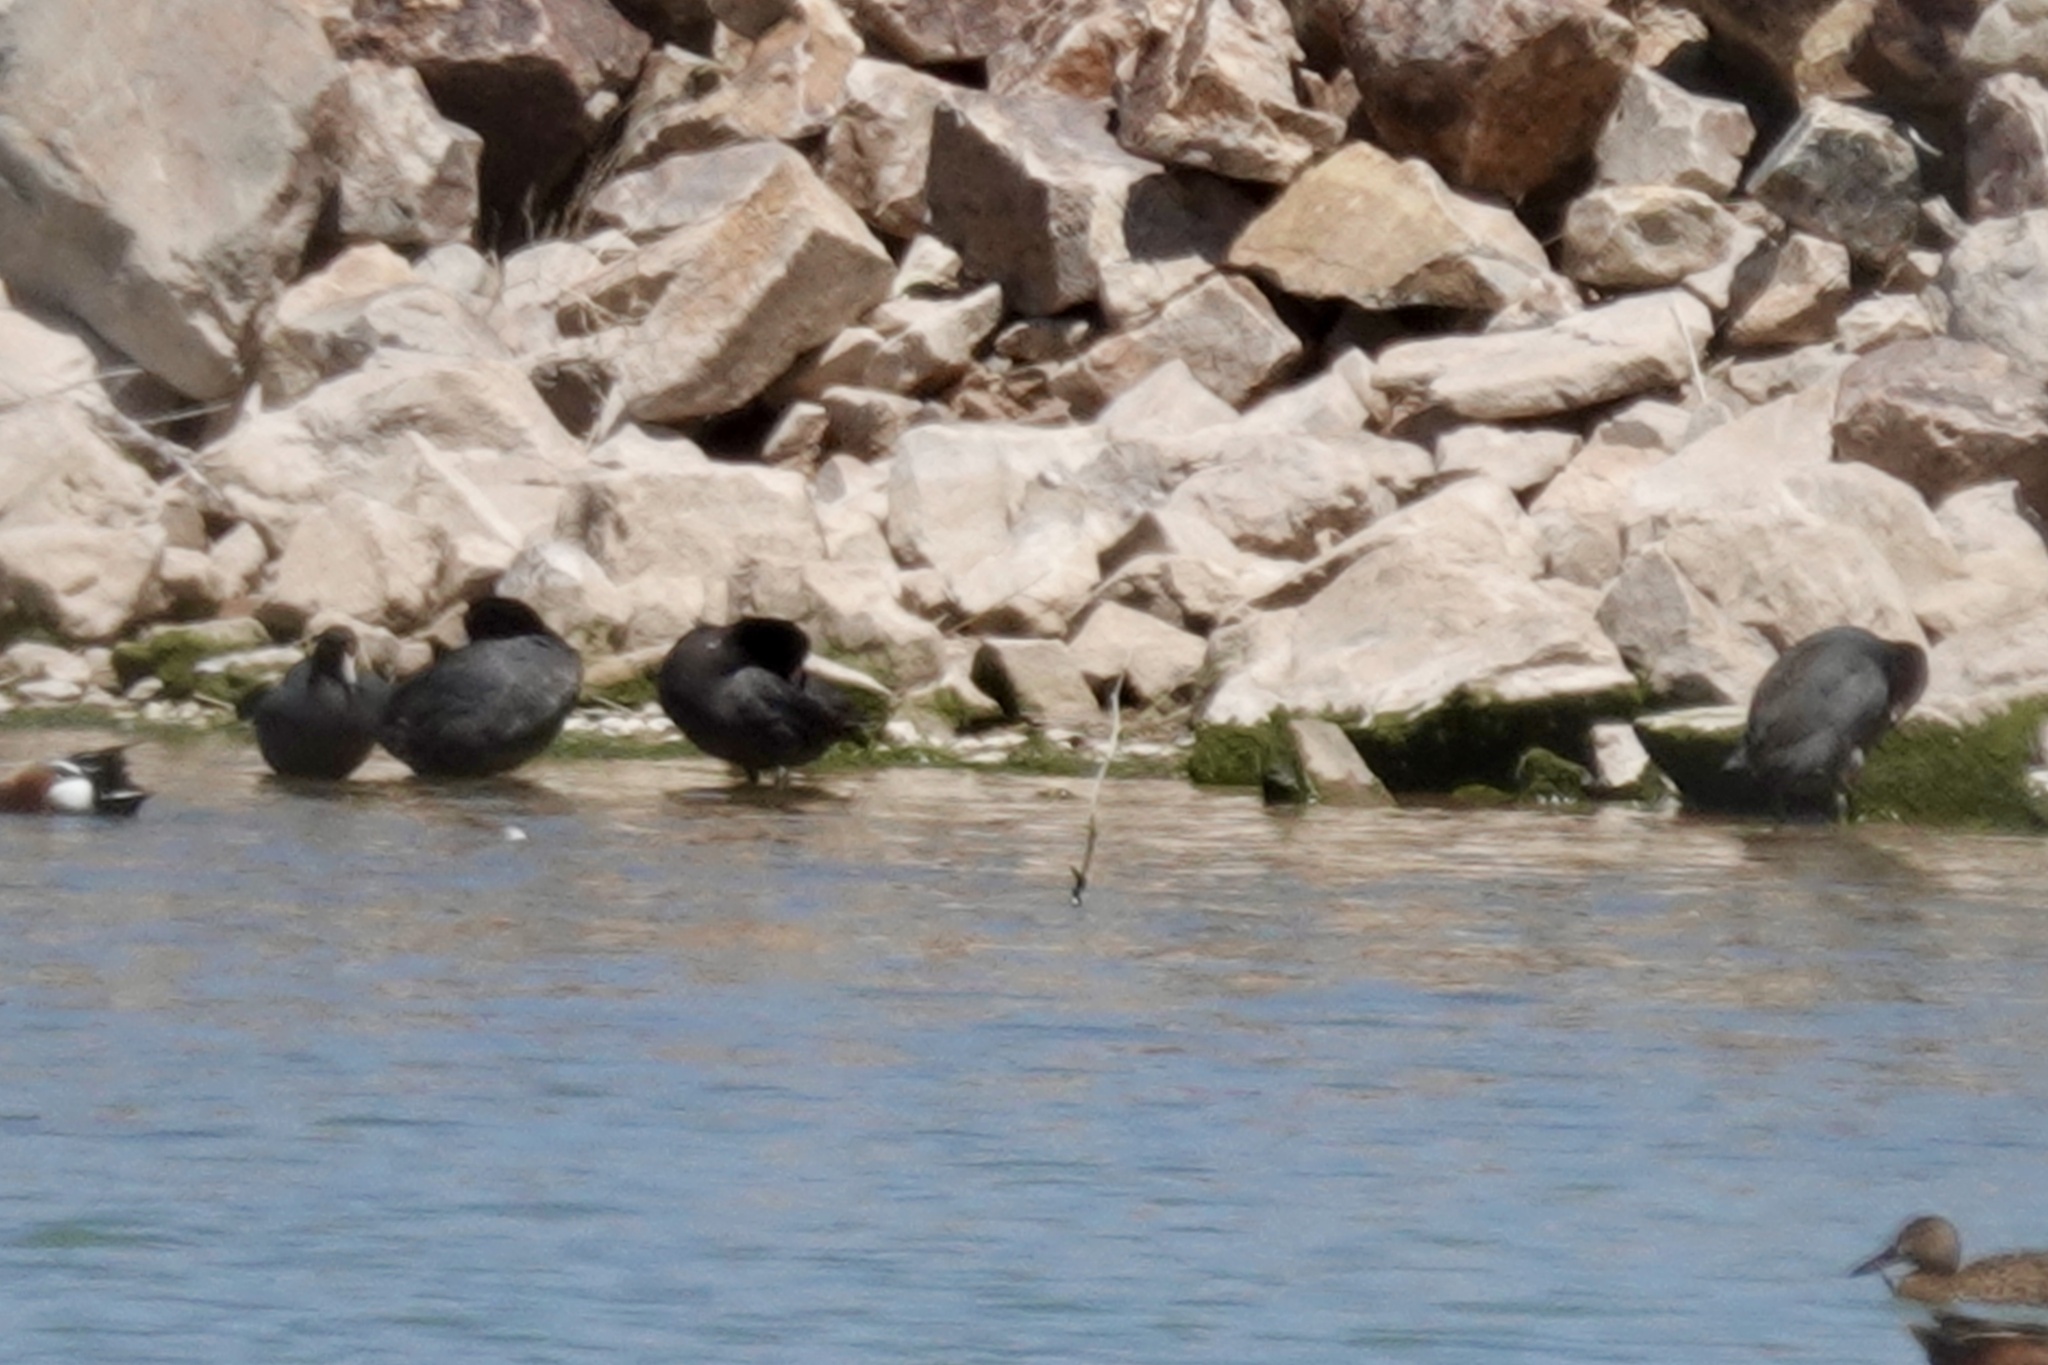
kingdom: Animalia
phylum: Chordata
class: Aves
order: Gruiformes
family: Rallidae
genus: Fulica
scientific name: Fulica americana
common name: American coot
